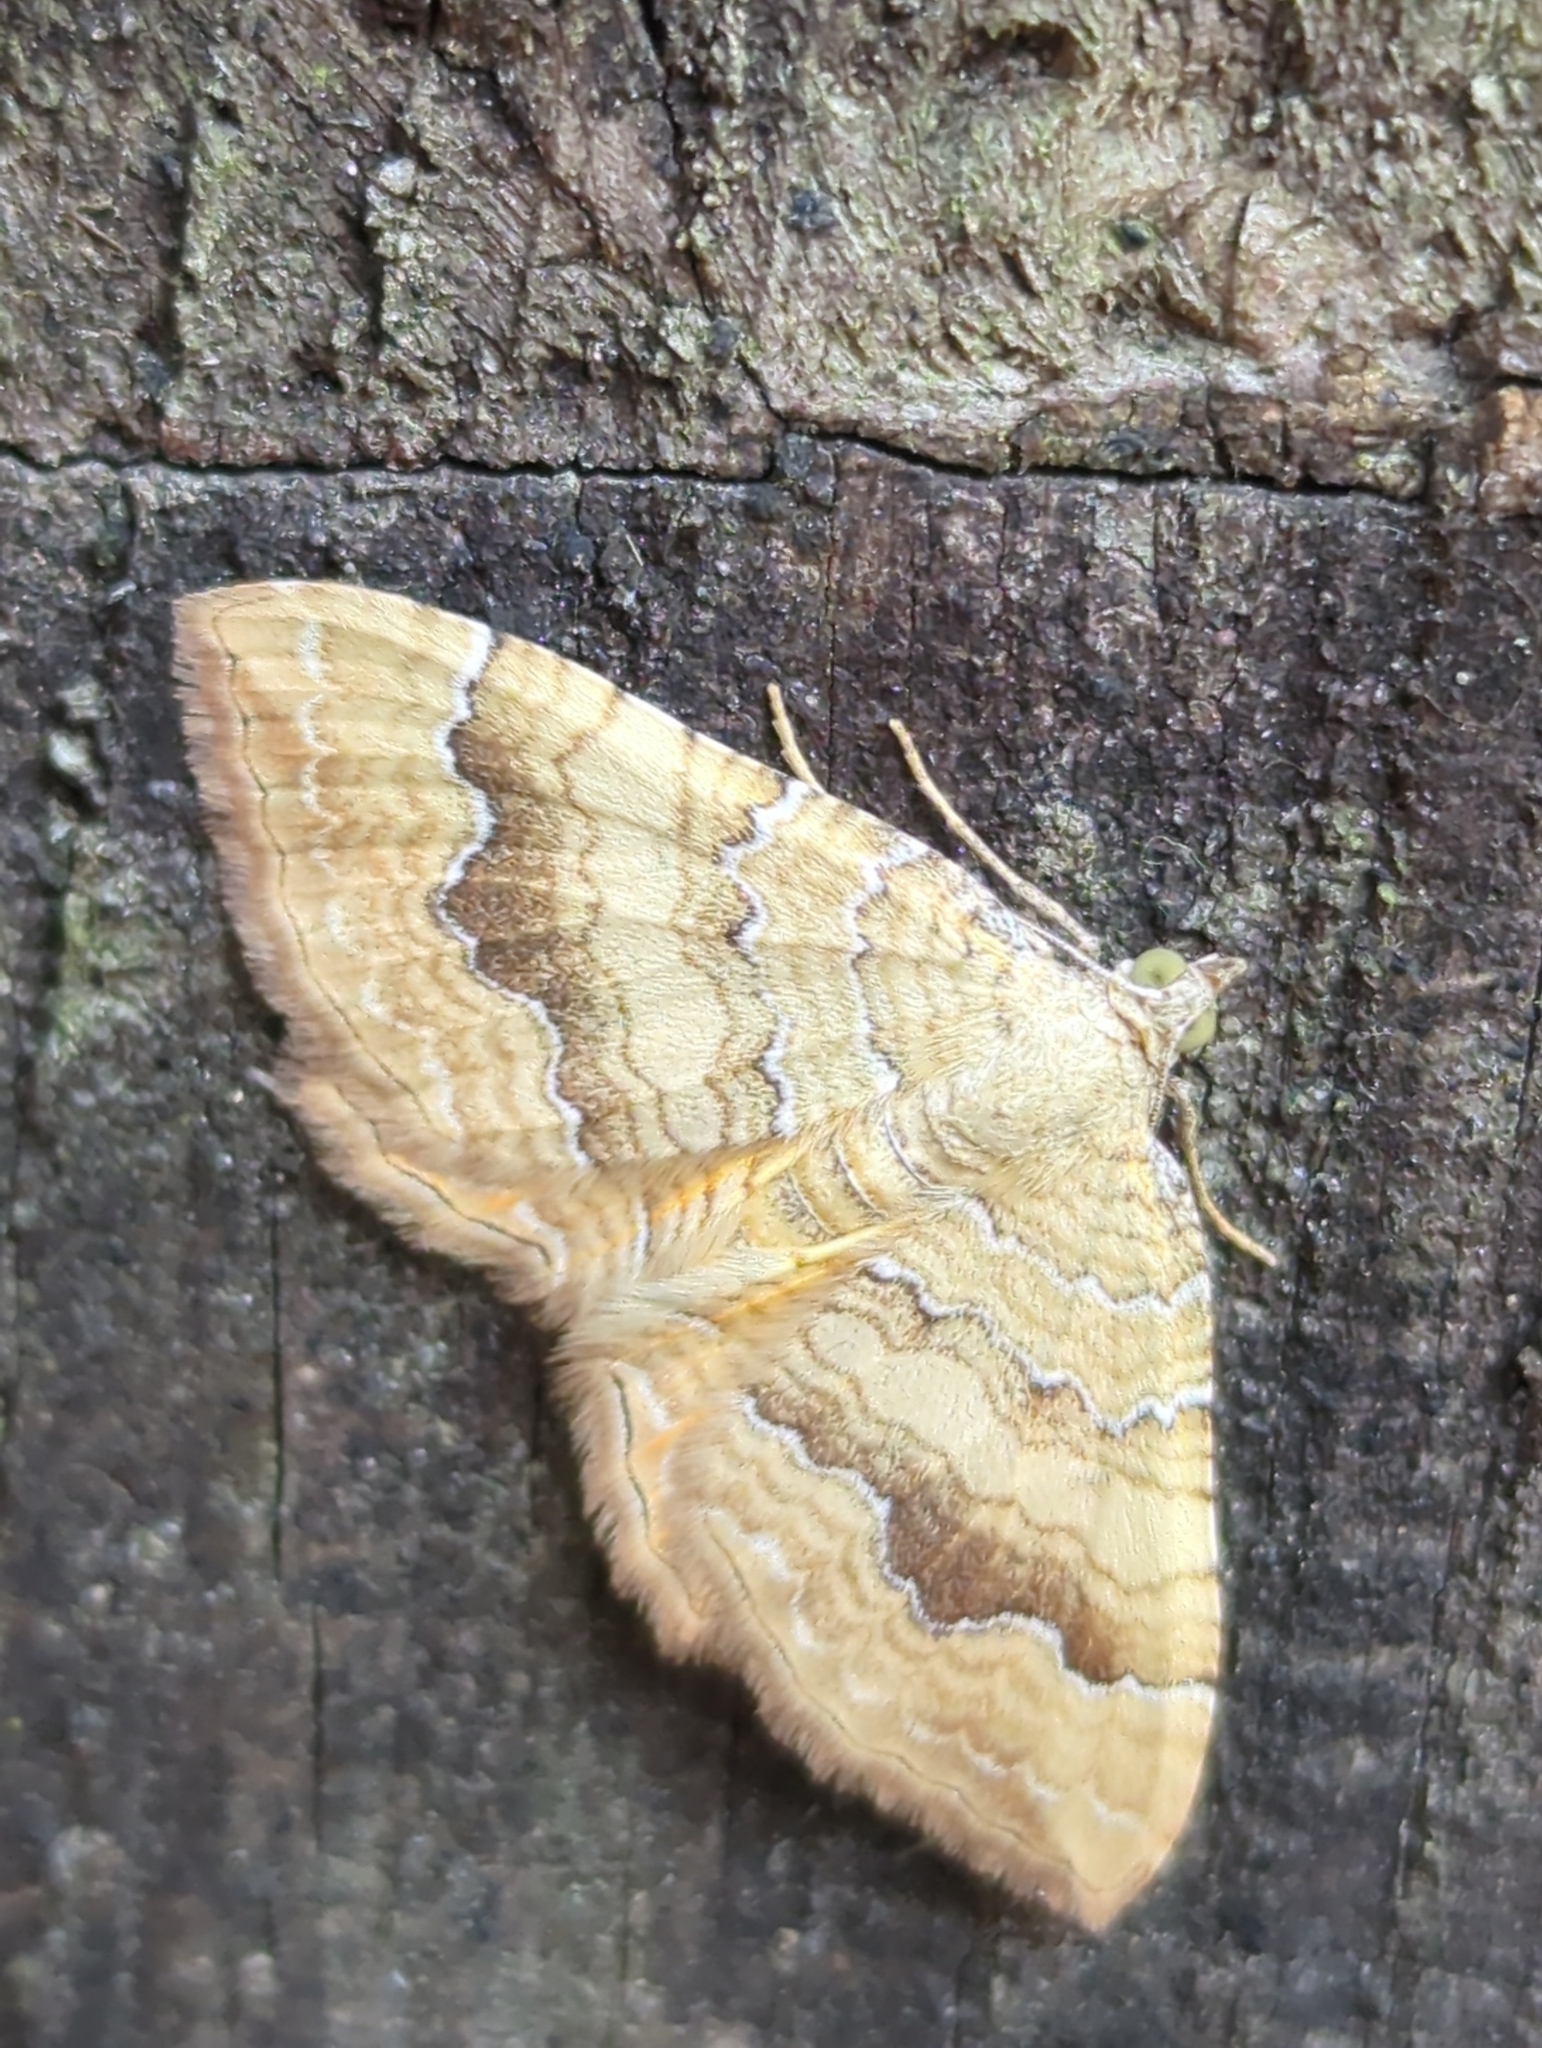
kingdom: Animalia
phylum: Arthropoda
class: Insecta
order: Lepidoptera
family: Geometridae
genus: Camptogramma
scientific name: Camptogramma bilineata
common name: Yellow shell
